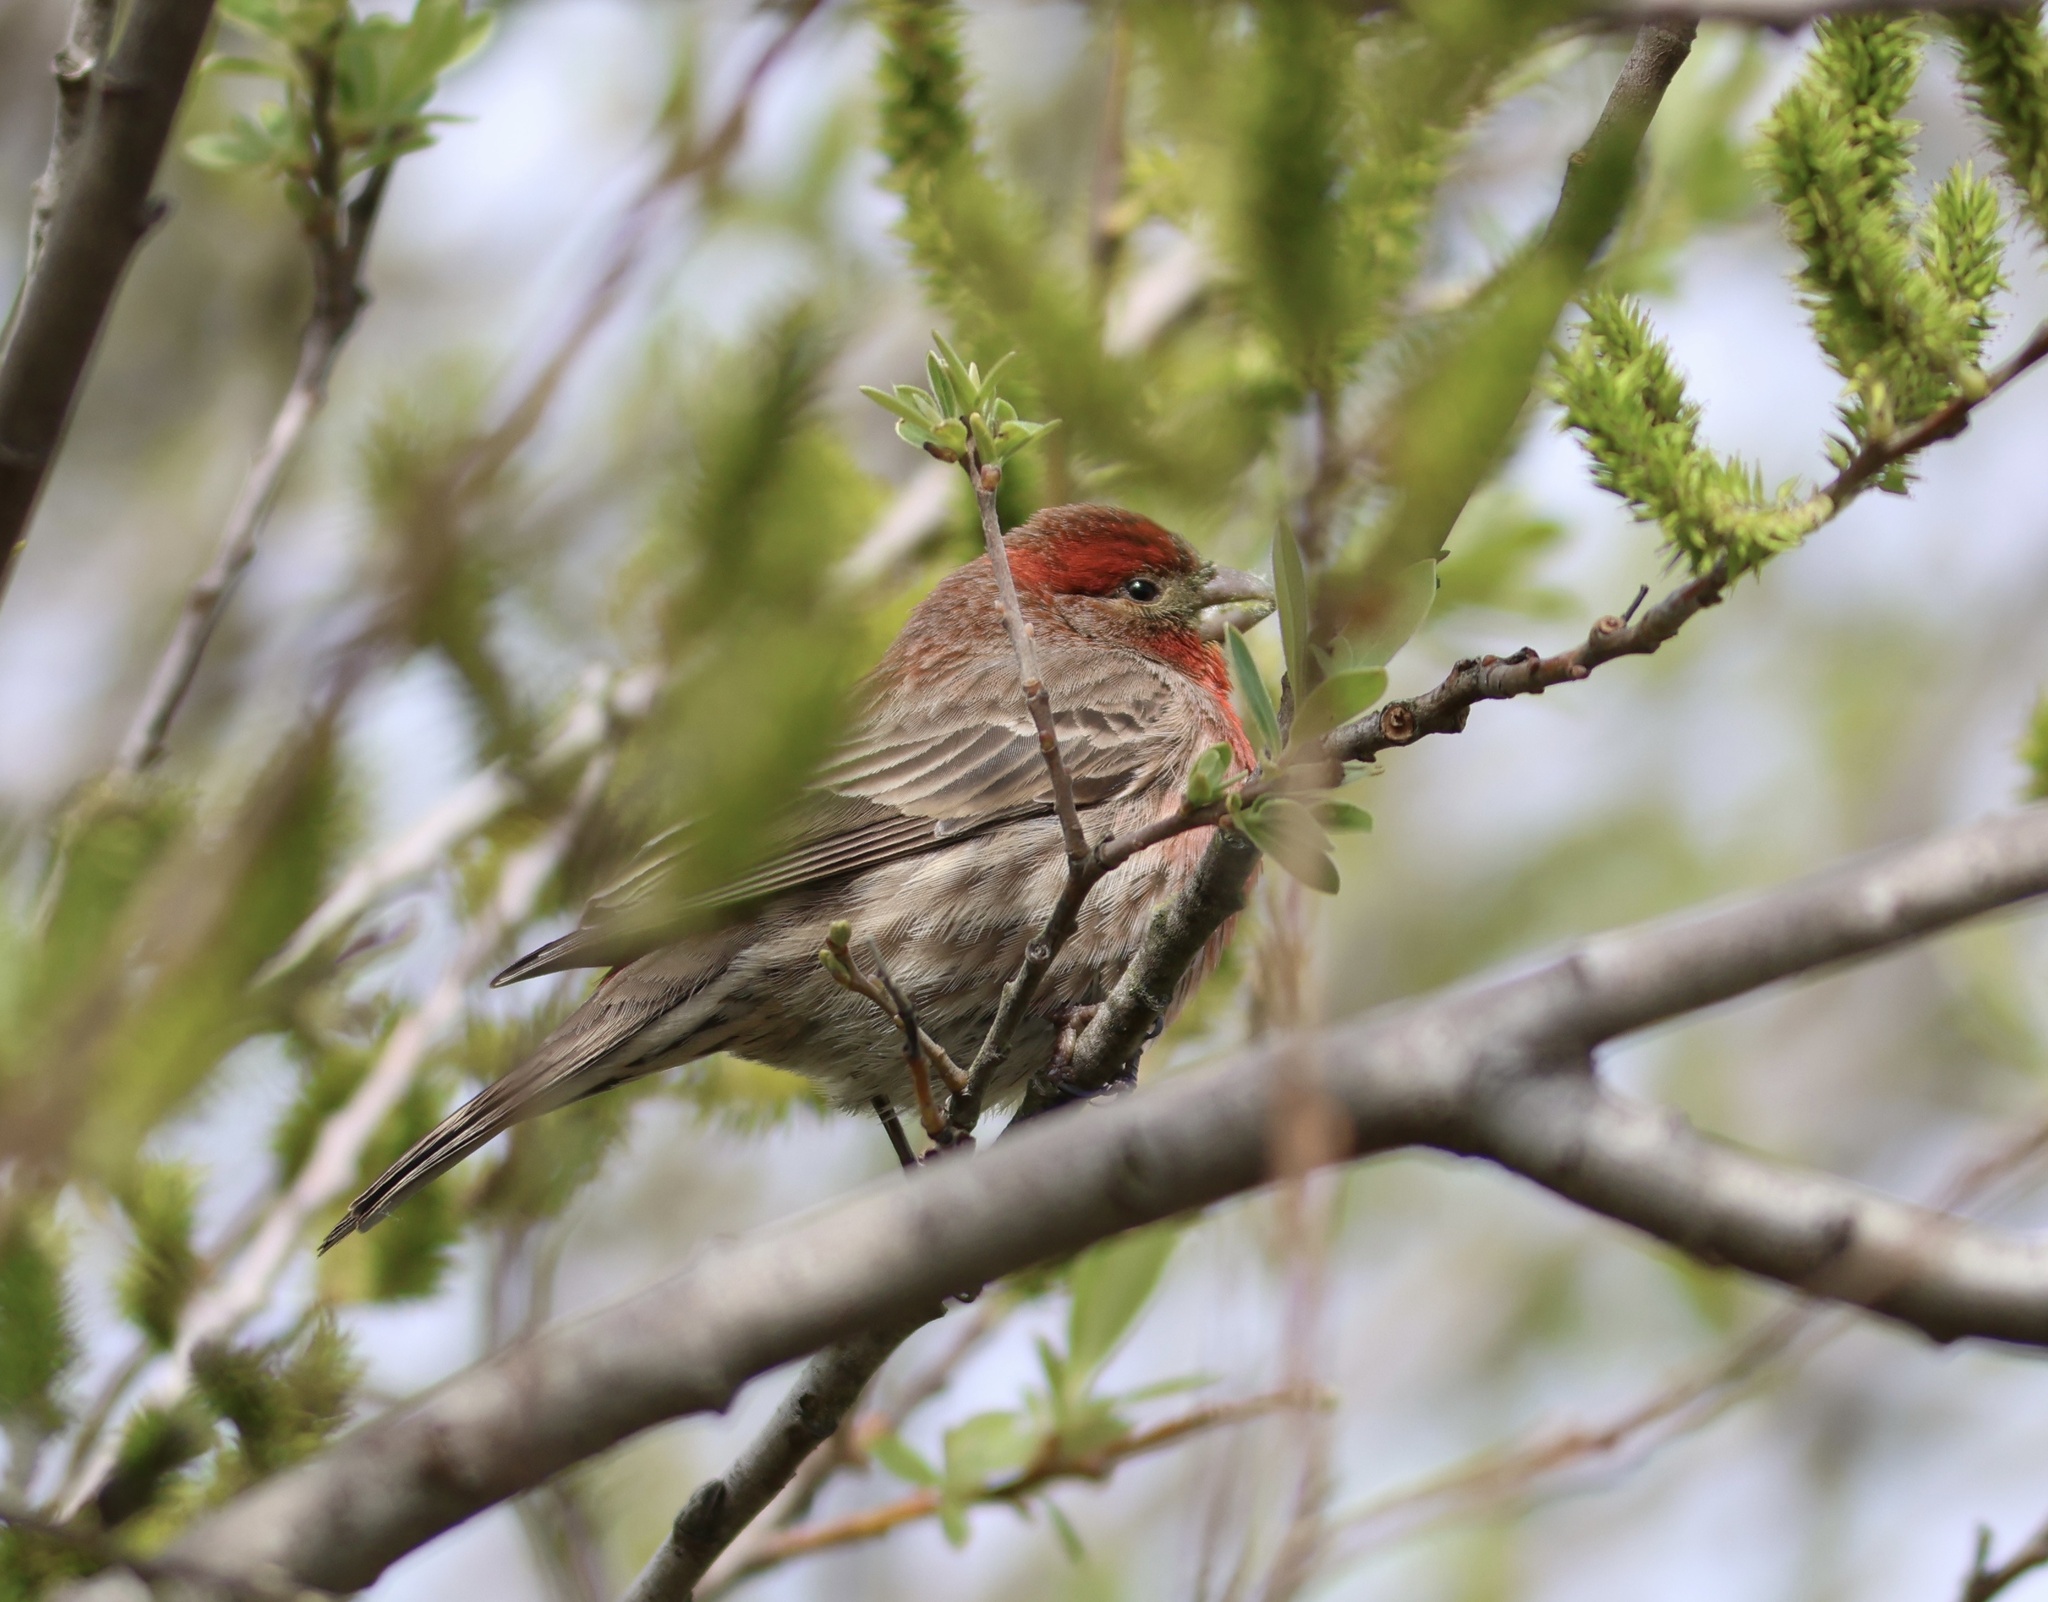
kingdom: Animalia
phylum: Chordata
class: Aves
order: Passeriformes
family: Fringillidae
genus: Haemorhous
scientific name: Haemorhous mexicanus
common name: House finch
